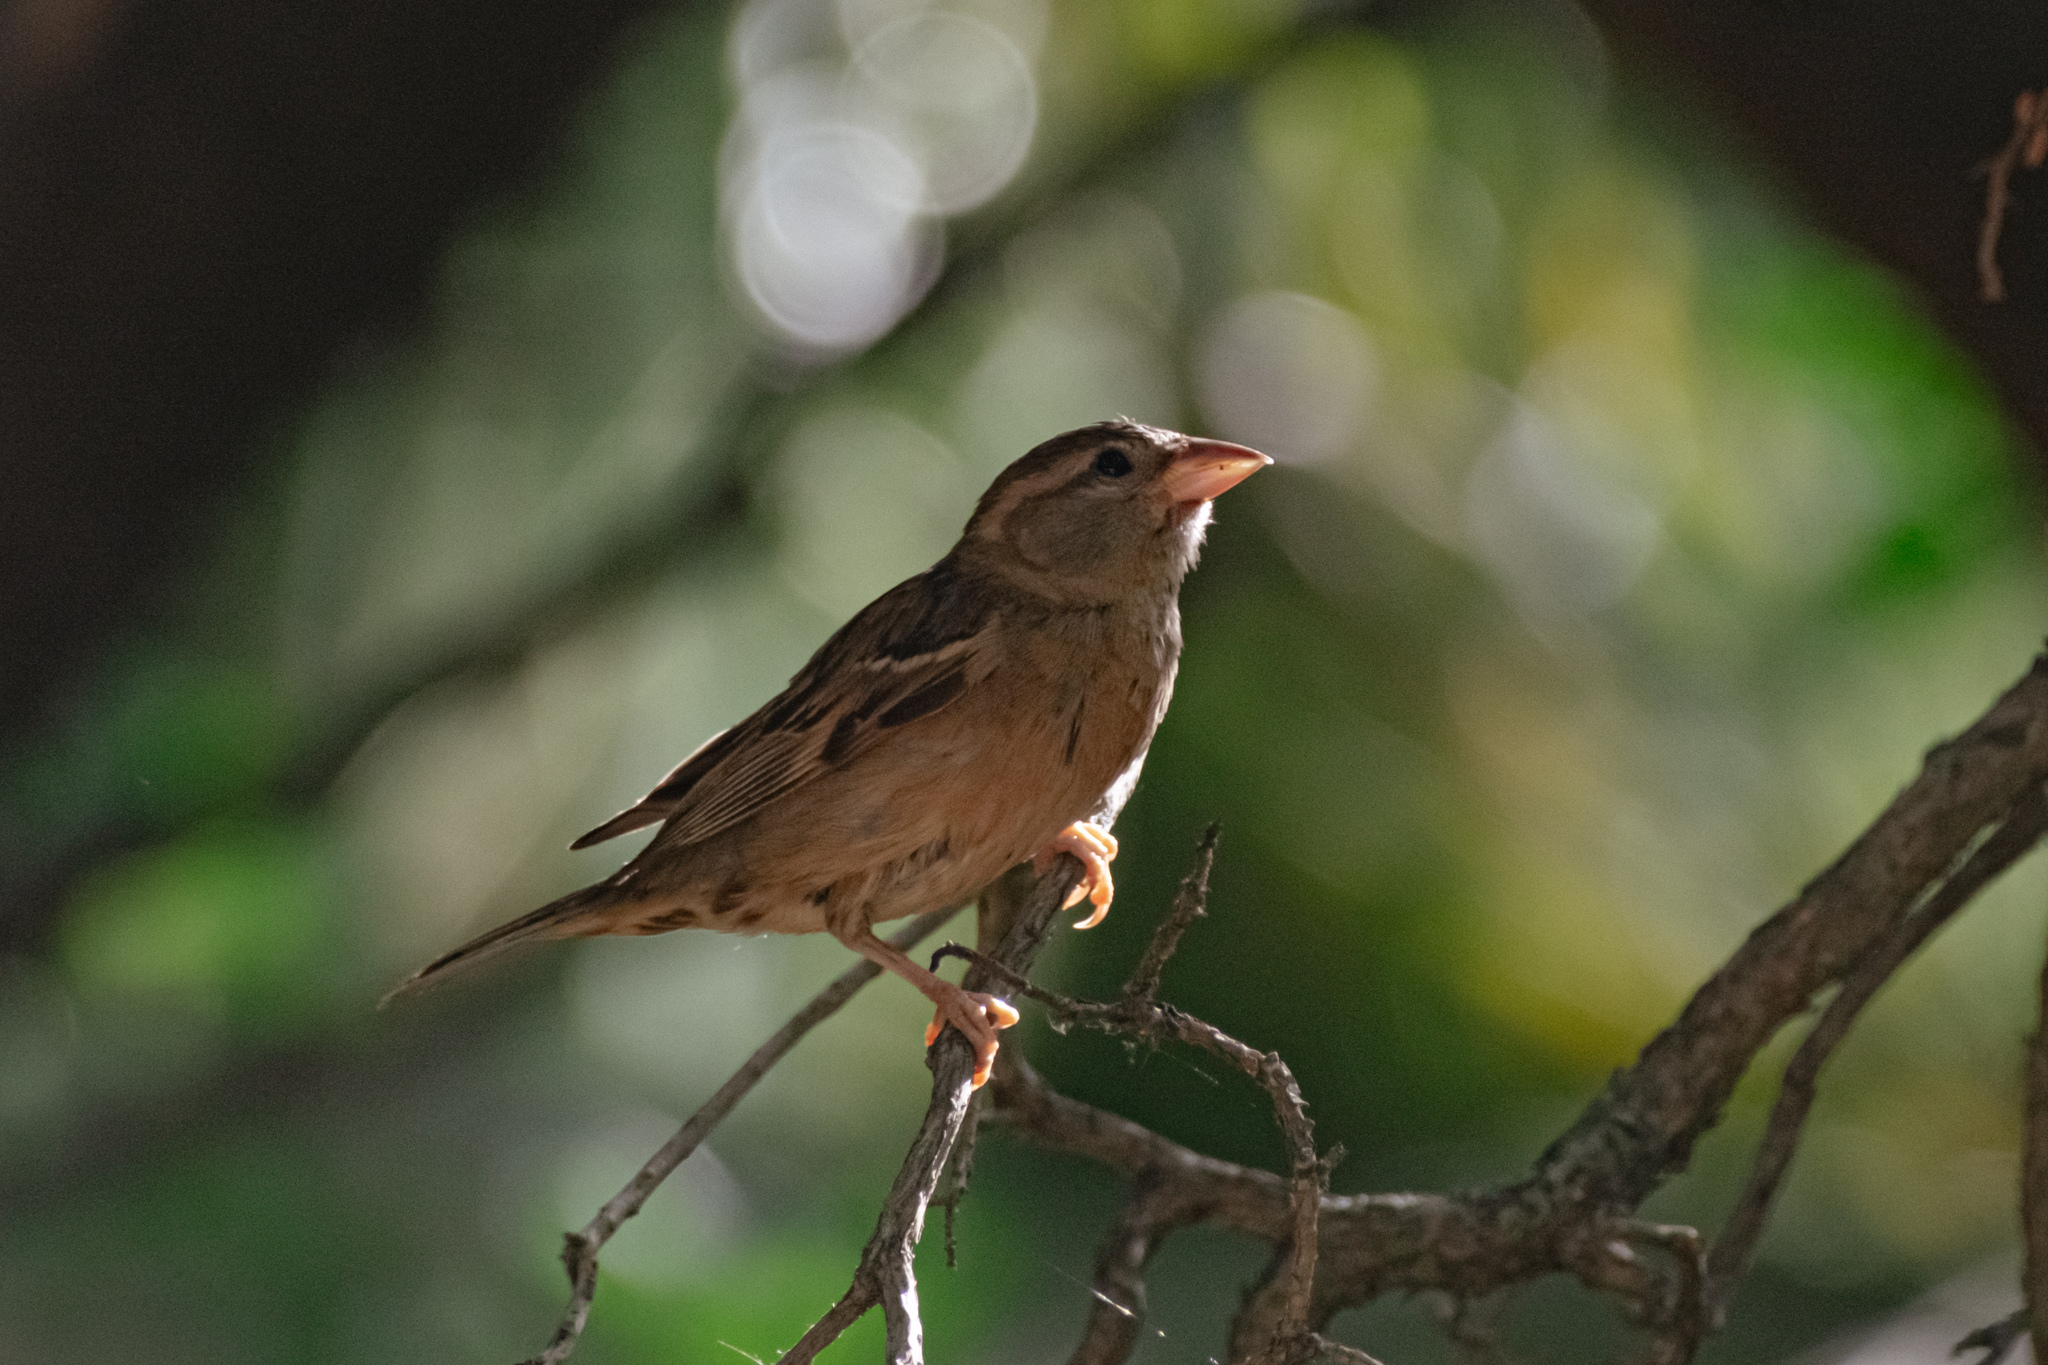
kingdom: Animalia
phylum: Chordata
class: Aves
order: Passeriformes
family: Passeridae
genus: Passer
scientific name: Passer domesticus
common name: House sparrow
